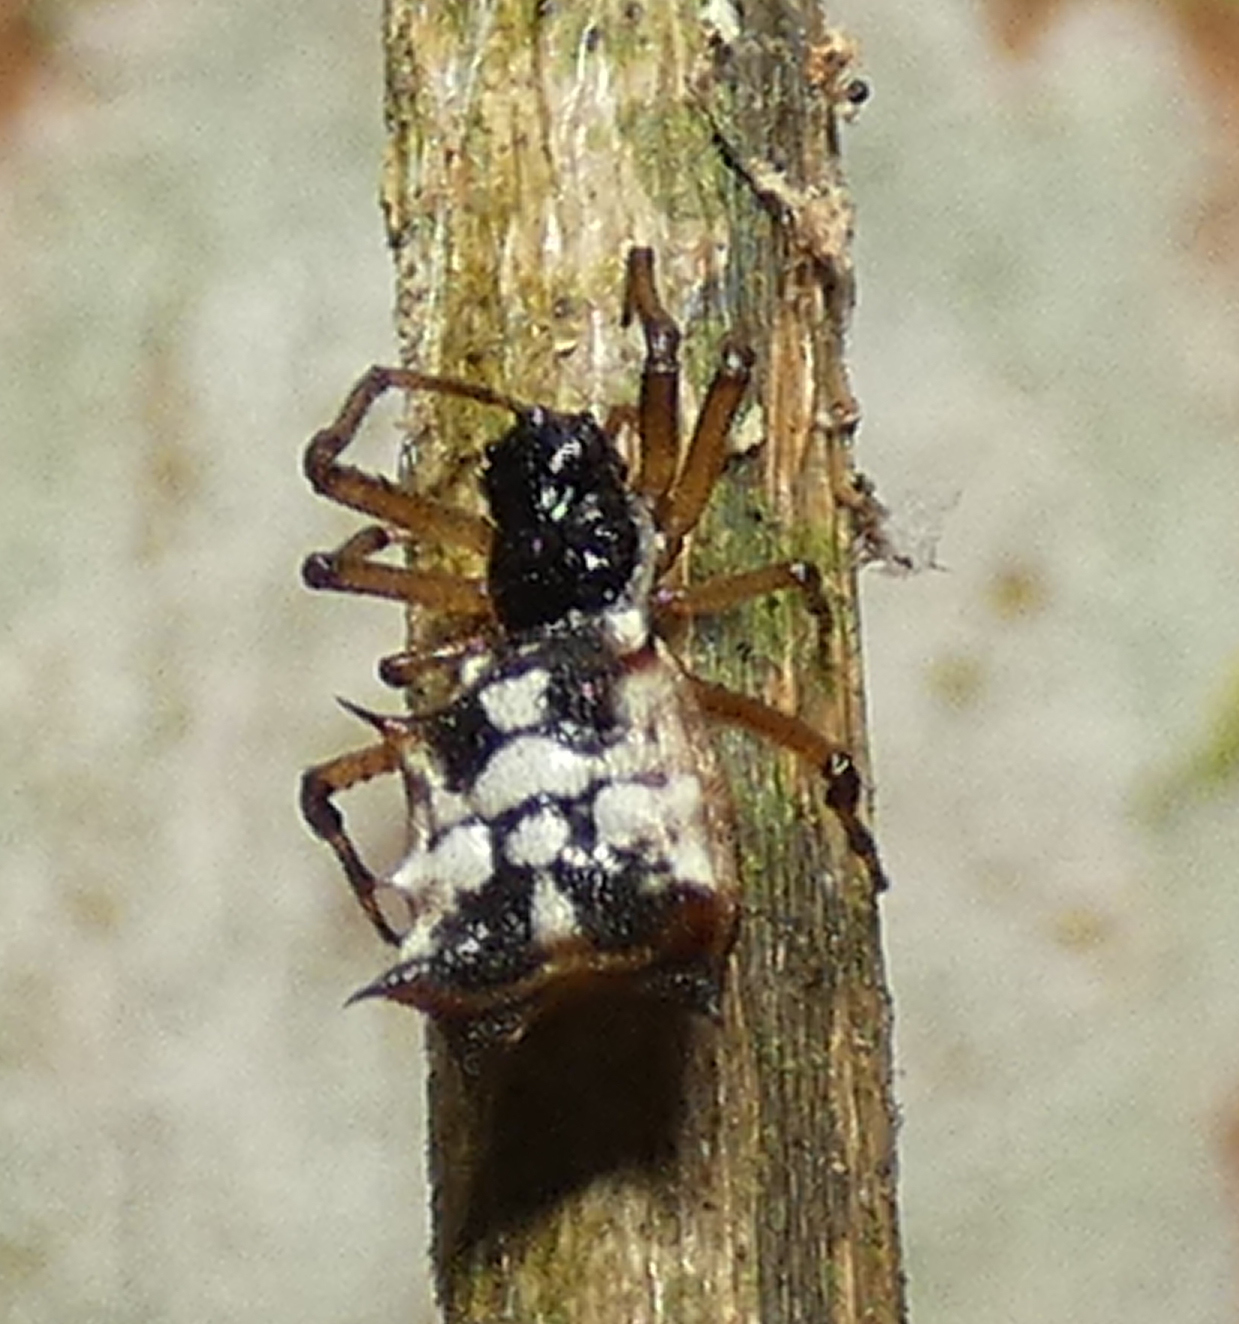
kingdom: Animalia
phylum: Arthropoda
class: Arachnida
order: Araneae
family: Araneidae
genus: Micrathena
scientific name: Micrathena picta
